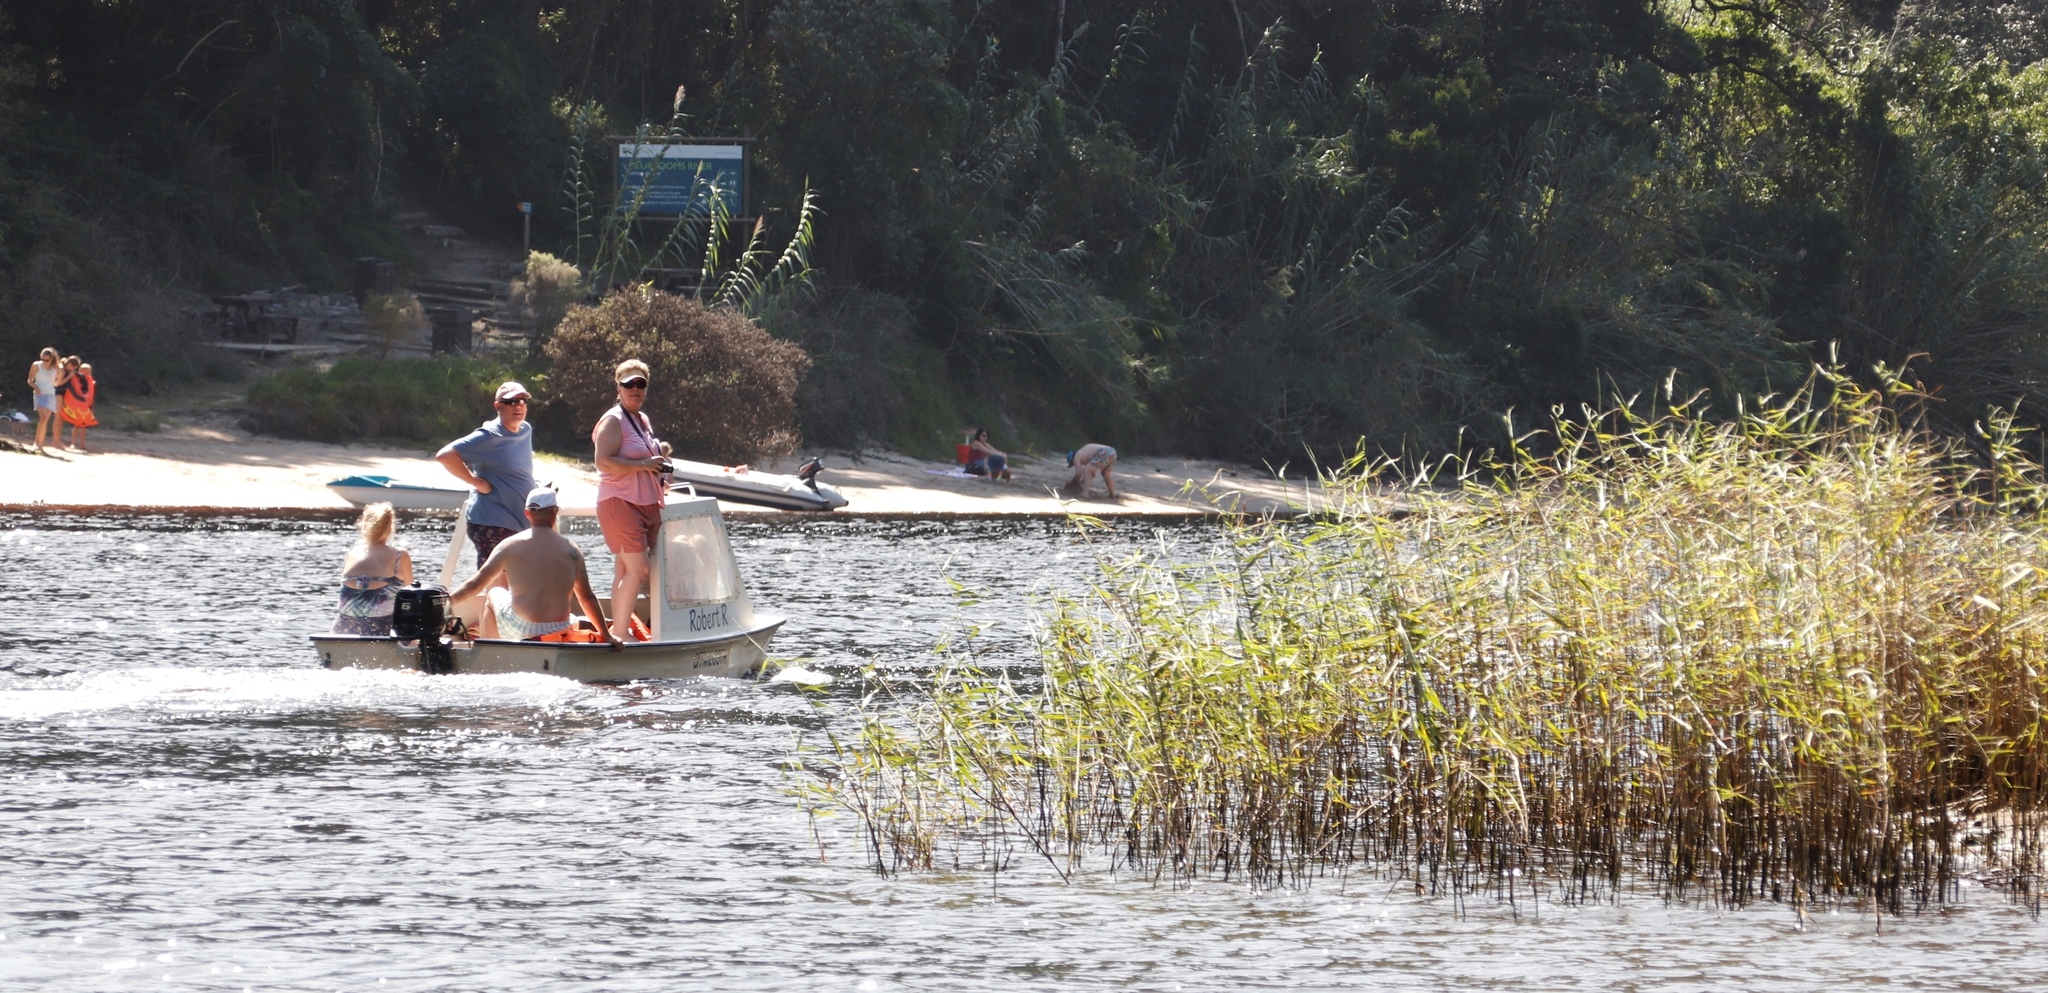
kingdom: Plantae
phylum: Tracheophyta
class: Liliopsida
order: Poales
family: Poaceae
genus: Phragmites
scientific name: Phragmites australis
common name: Common reed
